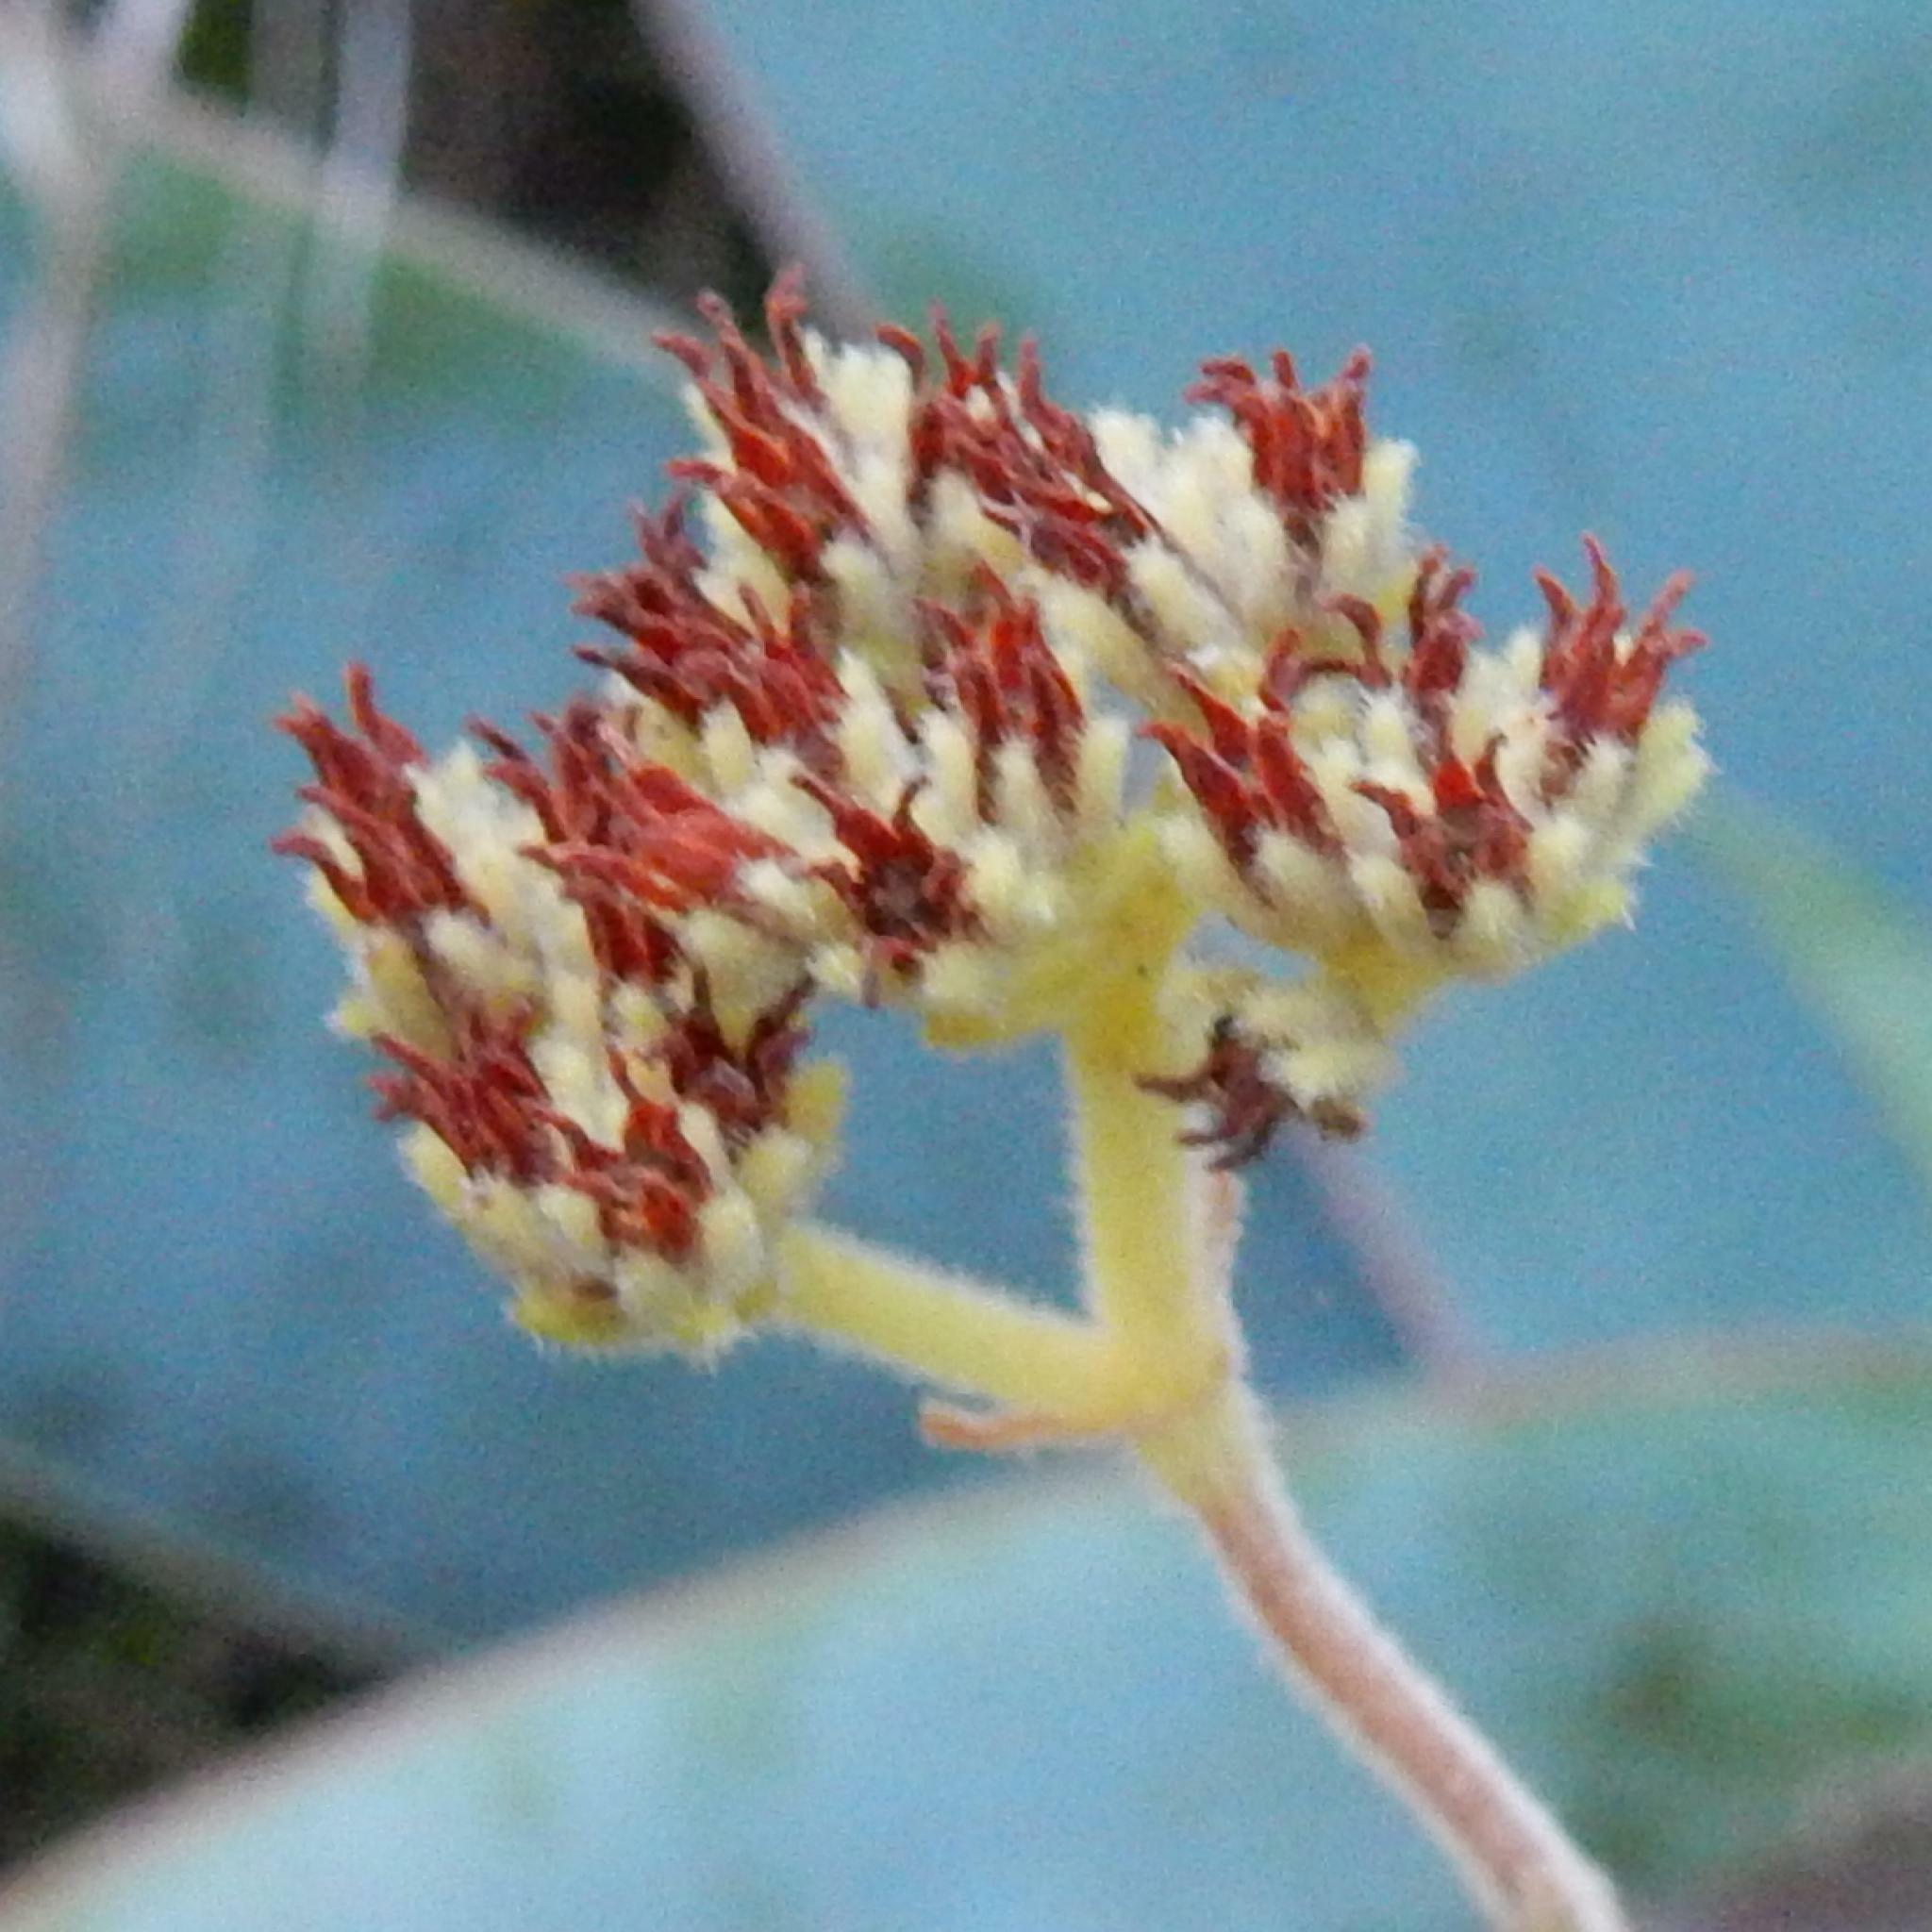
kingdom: Plantae
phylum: Tracheophyta
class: Magnoliopsida
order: Saxifragales
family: Crassulaceae
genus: Crassula
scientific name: Crassula mesembryanthoides
